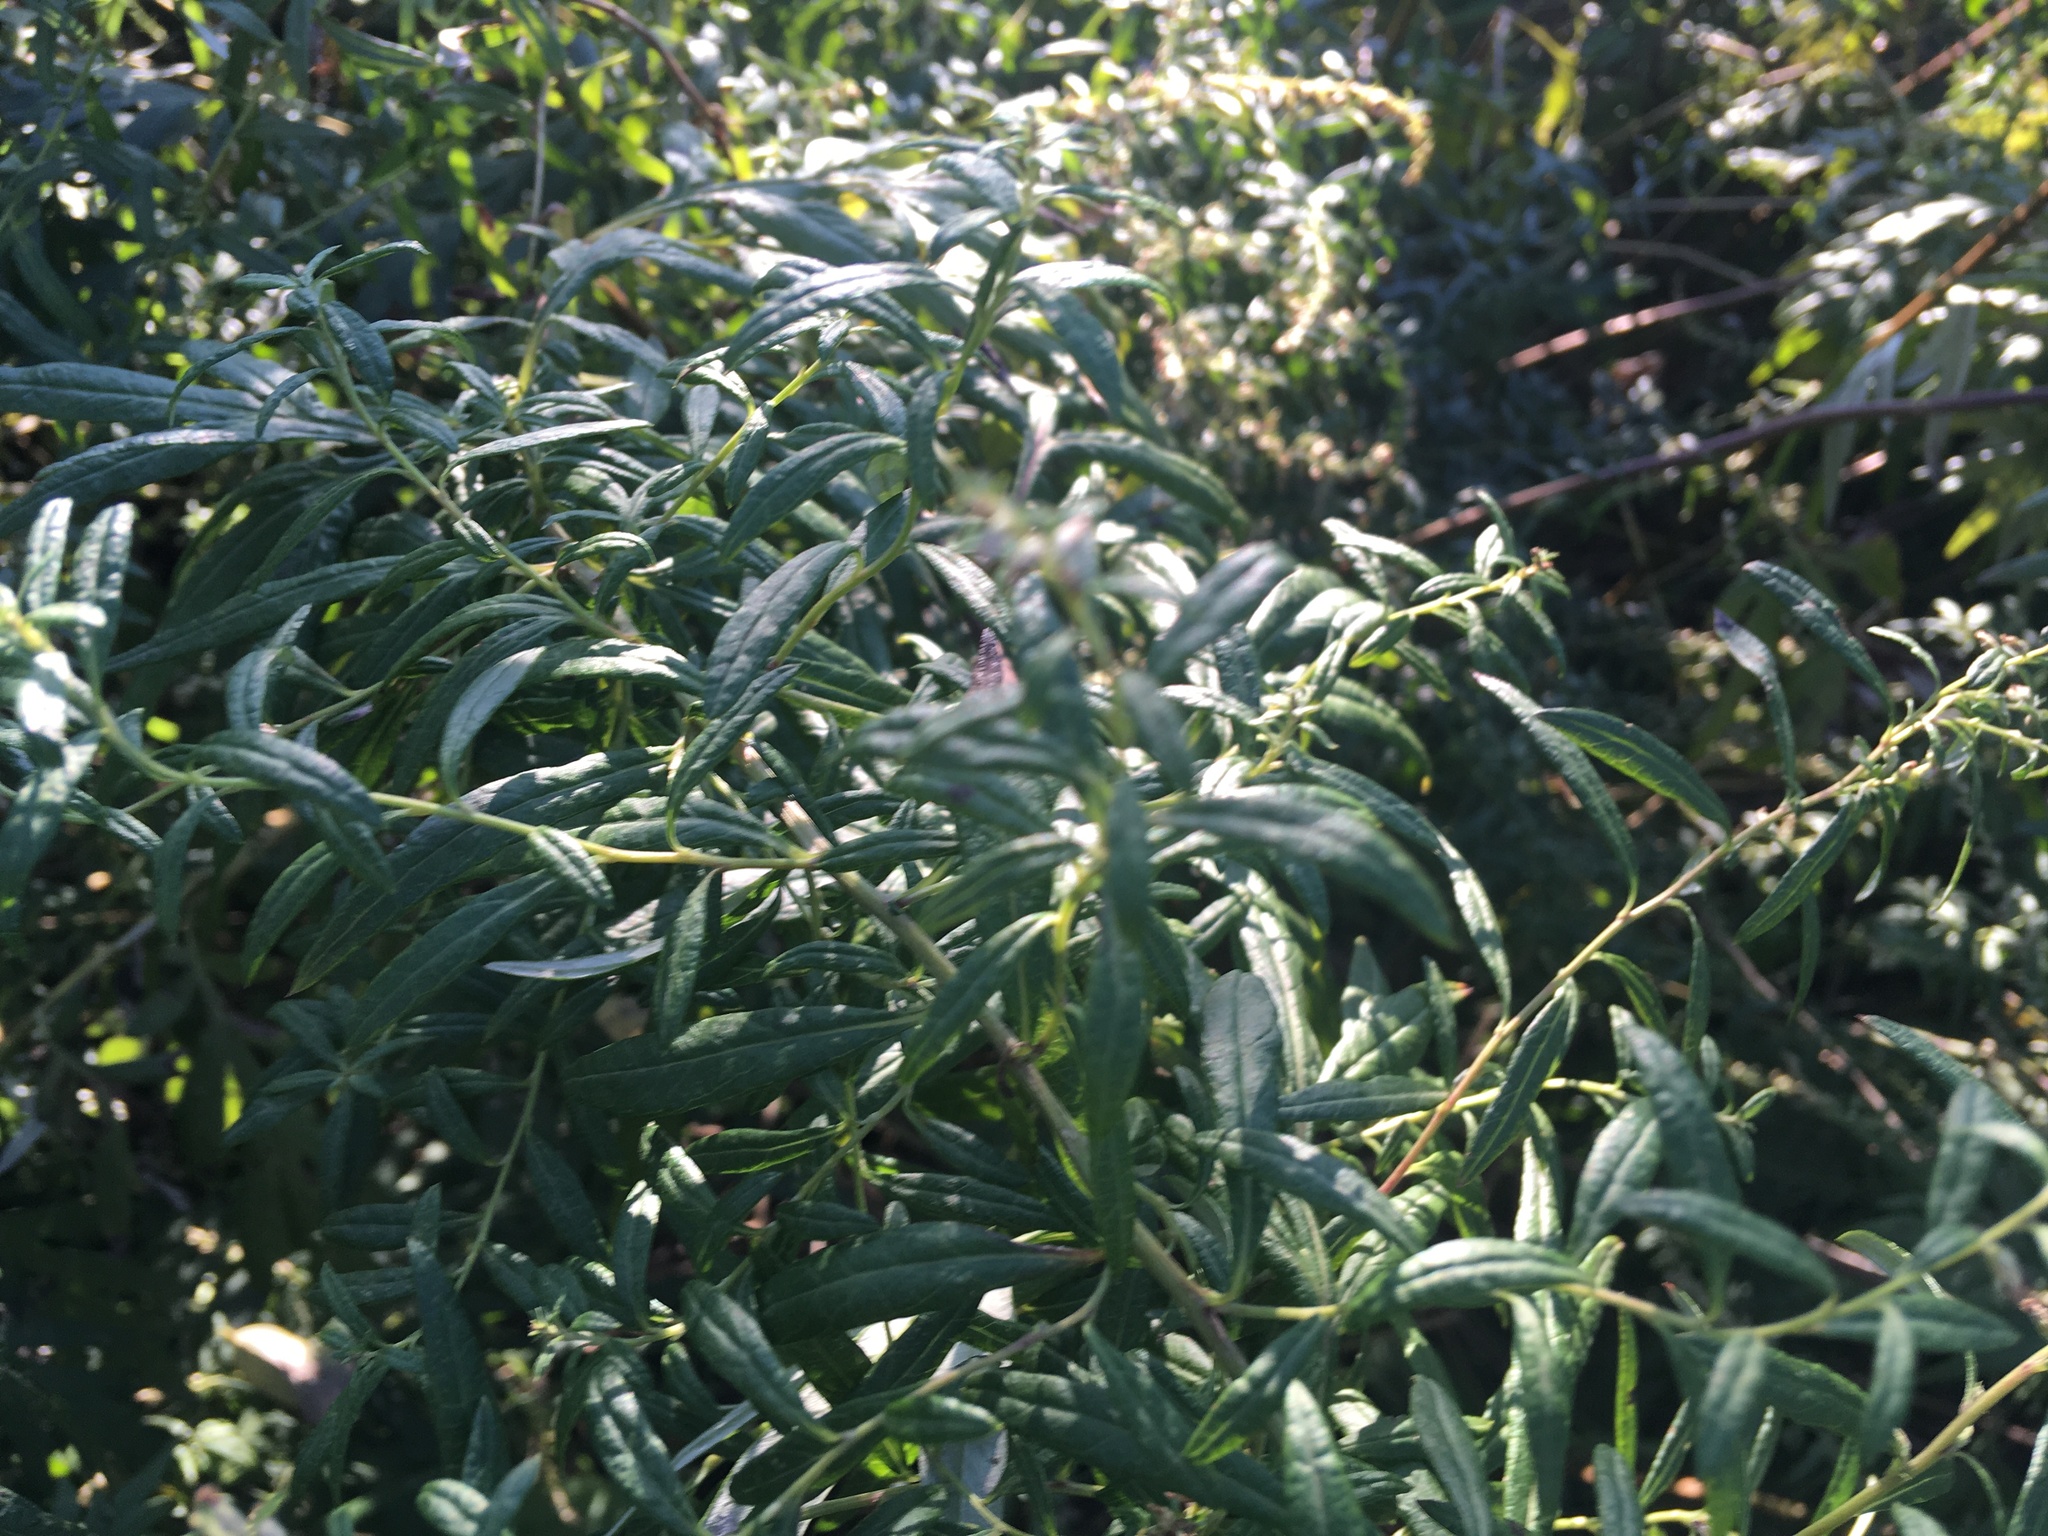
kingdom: Plantae
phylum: Tracheophyta
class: Magnoliopsida
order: Asterales
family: Asteraceae
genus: Artemisia
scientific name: Artemisia vulgaris
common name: Mugwort
